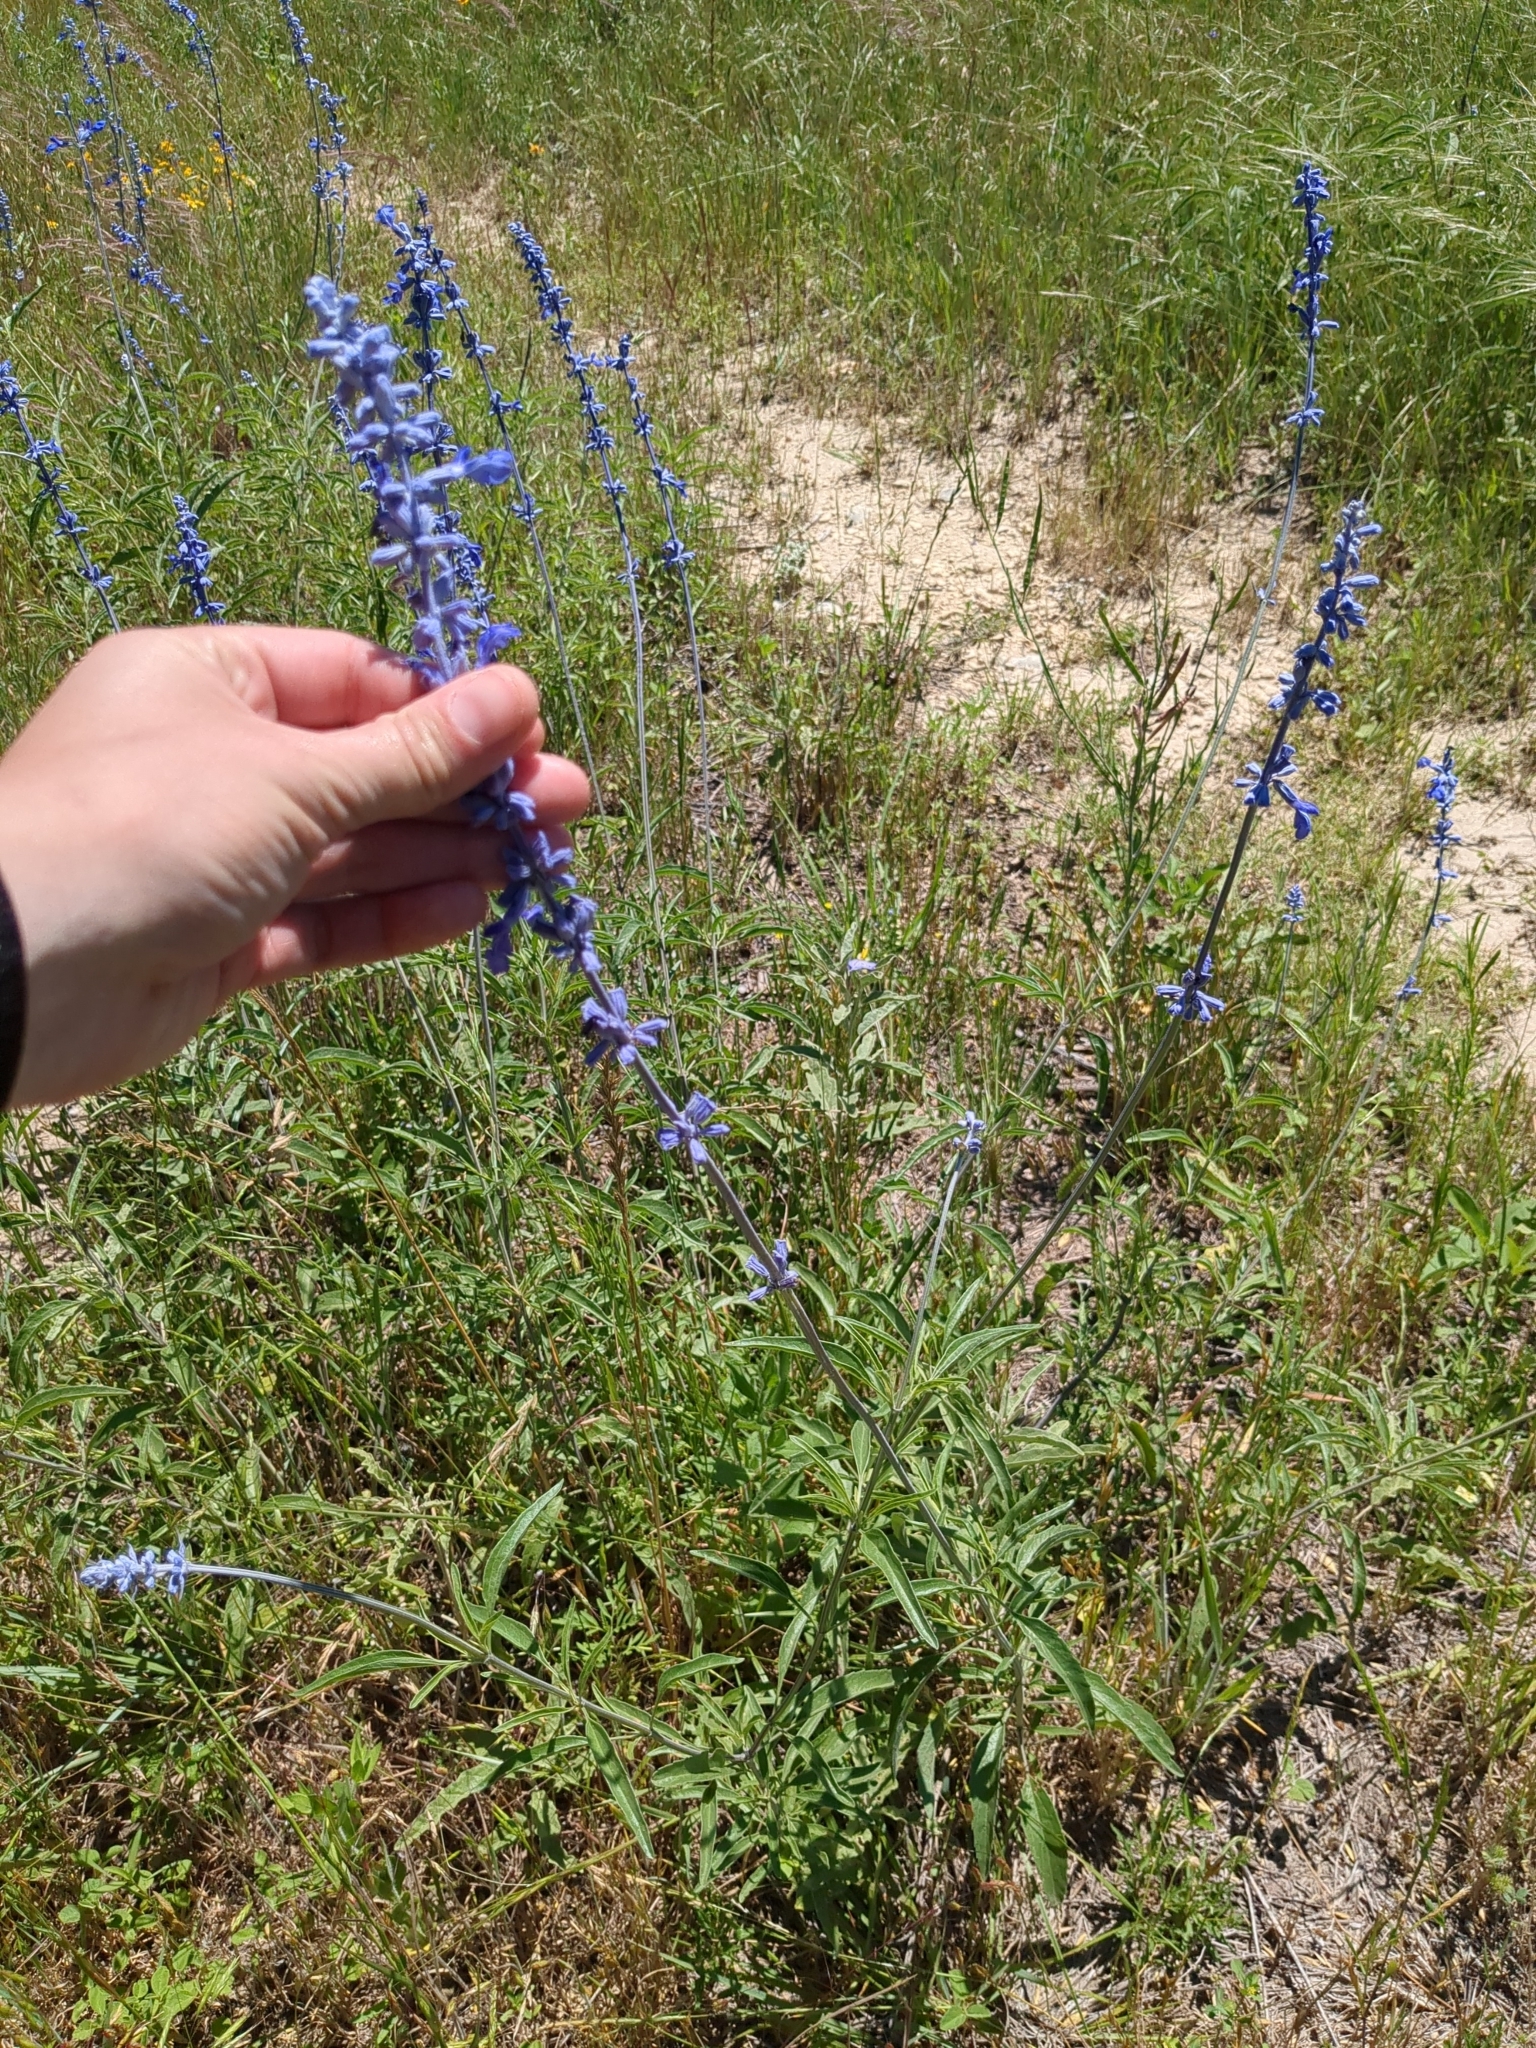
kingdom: Plantae
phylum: Tracheophyta
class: Magnoliopsida
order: Lamiales
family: Lamiaceae
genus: Salvia
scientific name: Salvia farinacea
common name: Mealy sage
